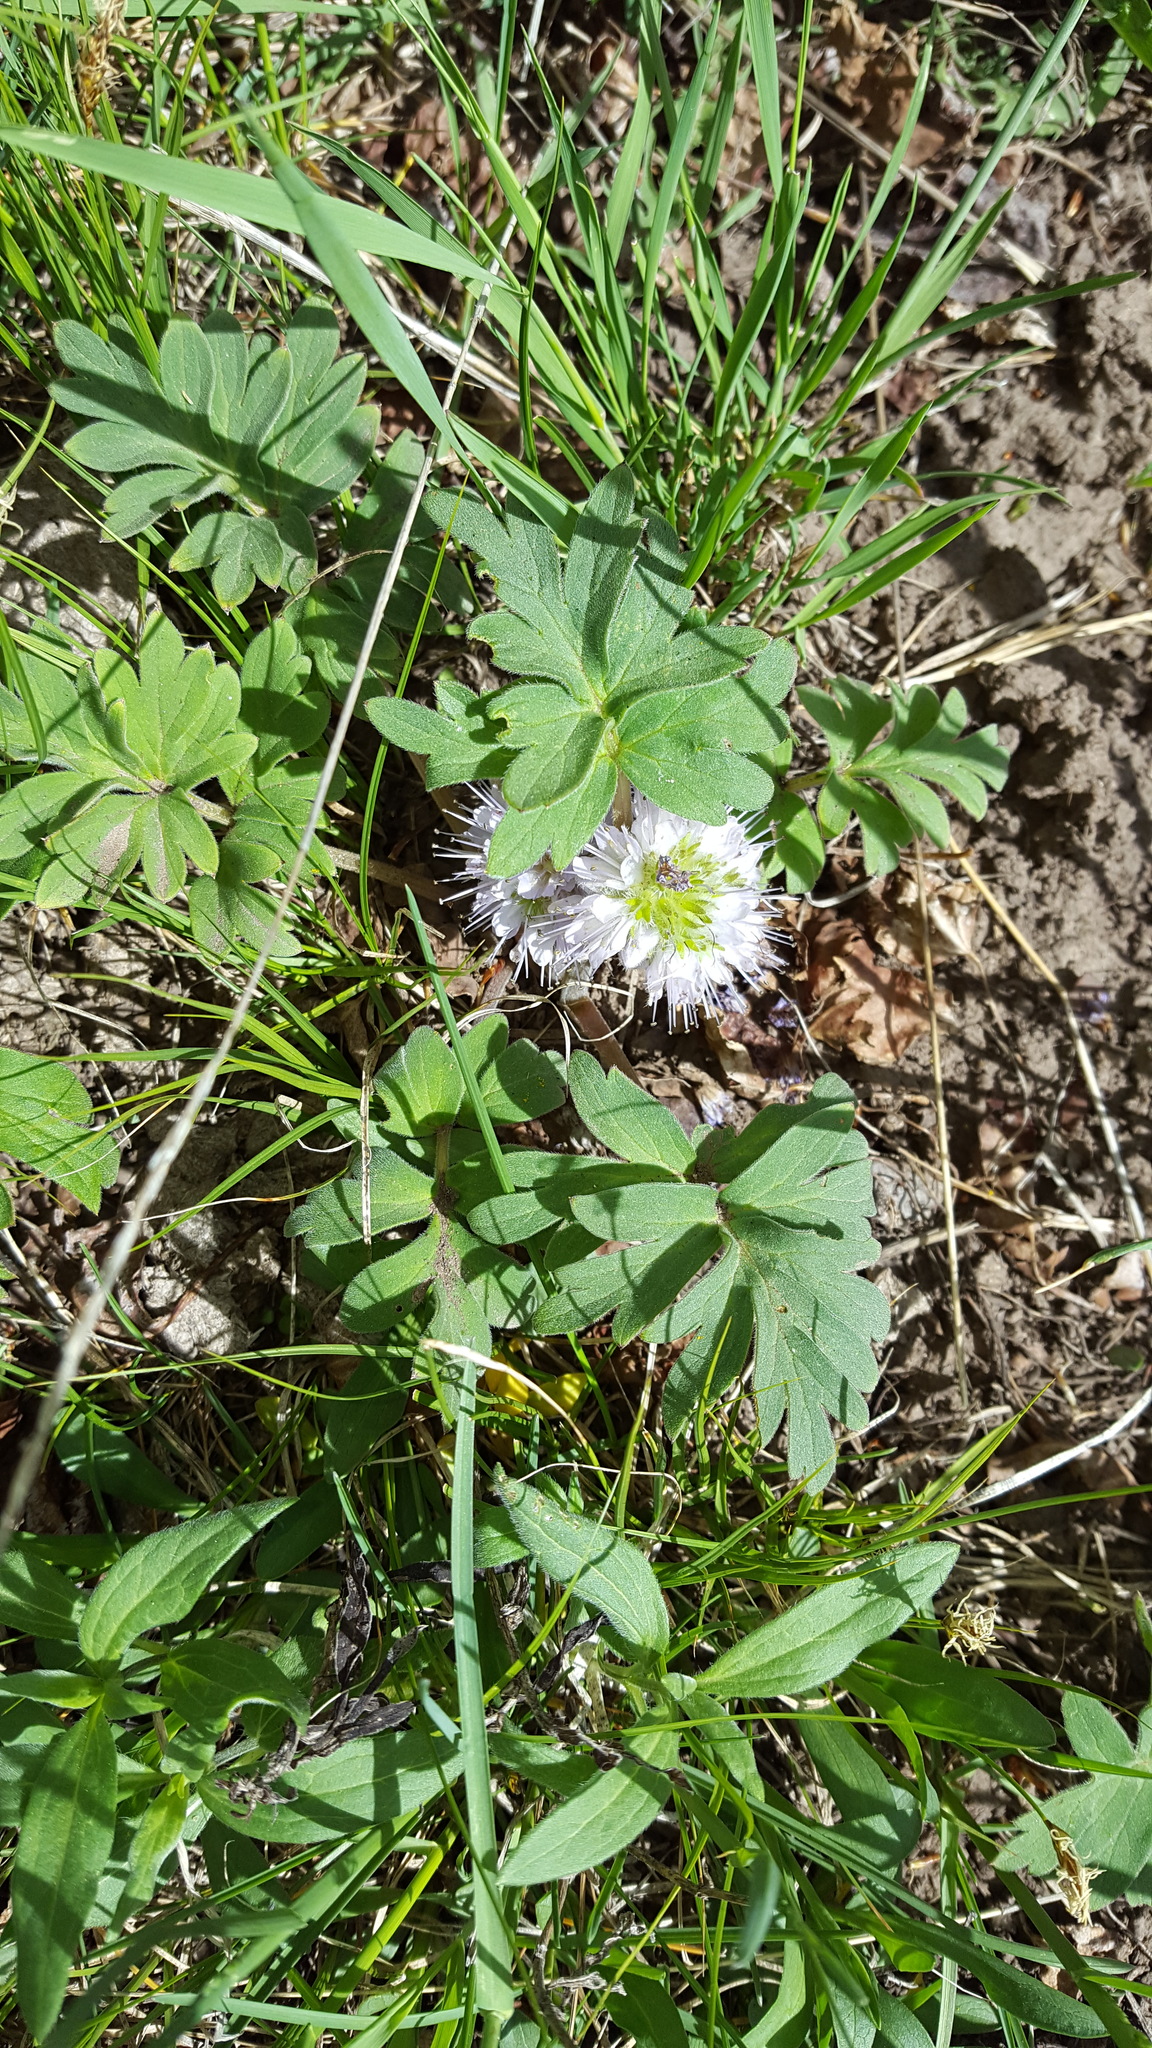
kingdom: Plantae
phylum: Tracheophyta
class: Magnoliopsida
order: Boraginales
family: Hydrophyllaceae
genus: Hydrophyllum
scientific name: Hydrophyllum capitatum
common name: Woollen-breeches
